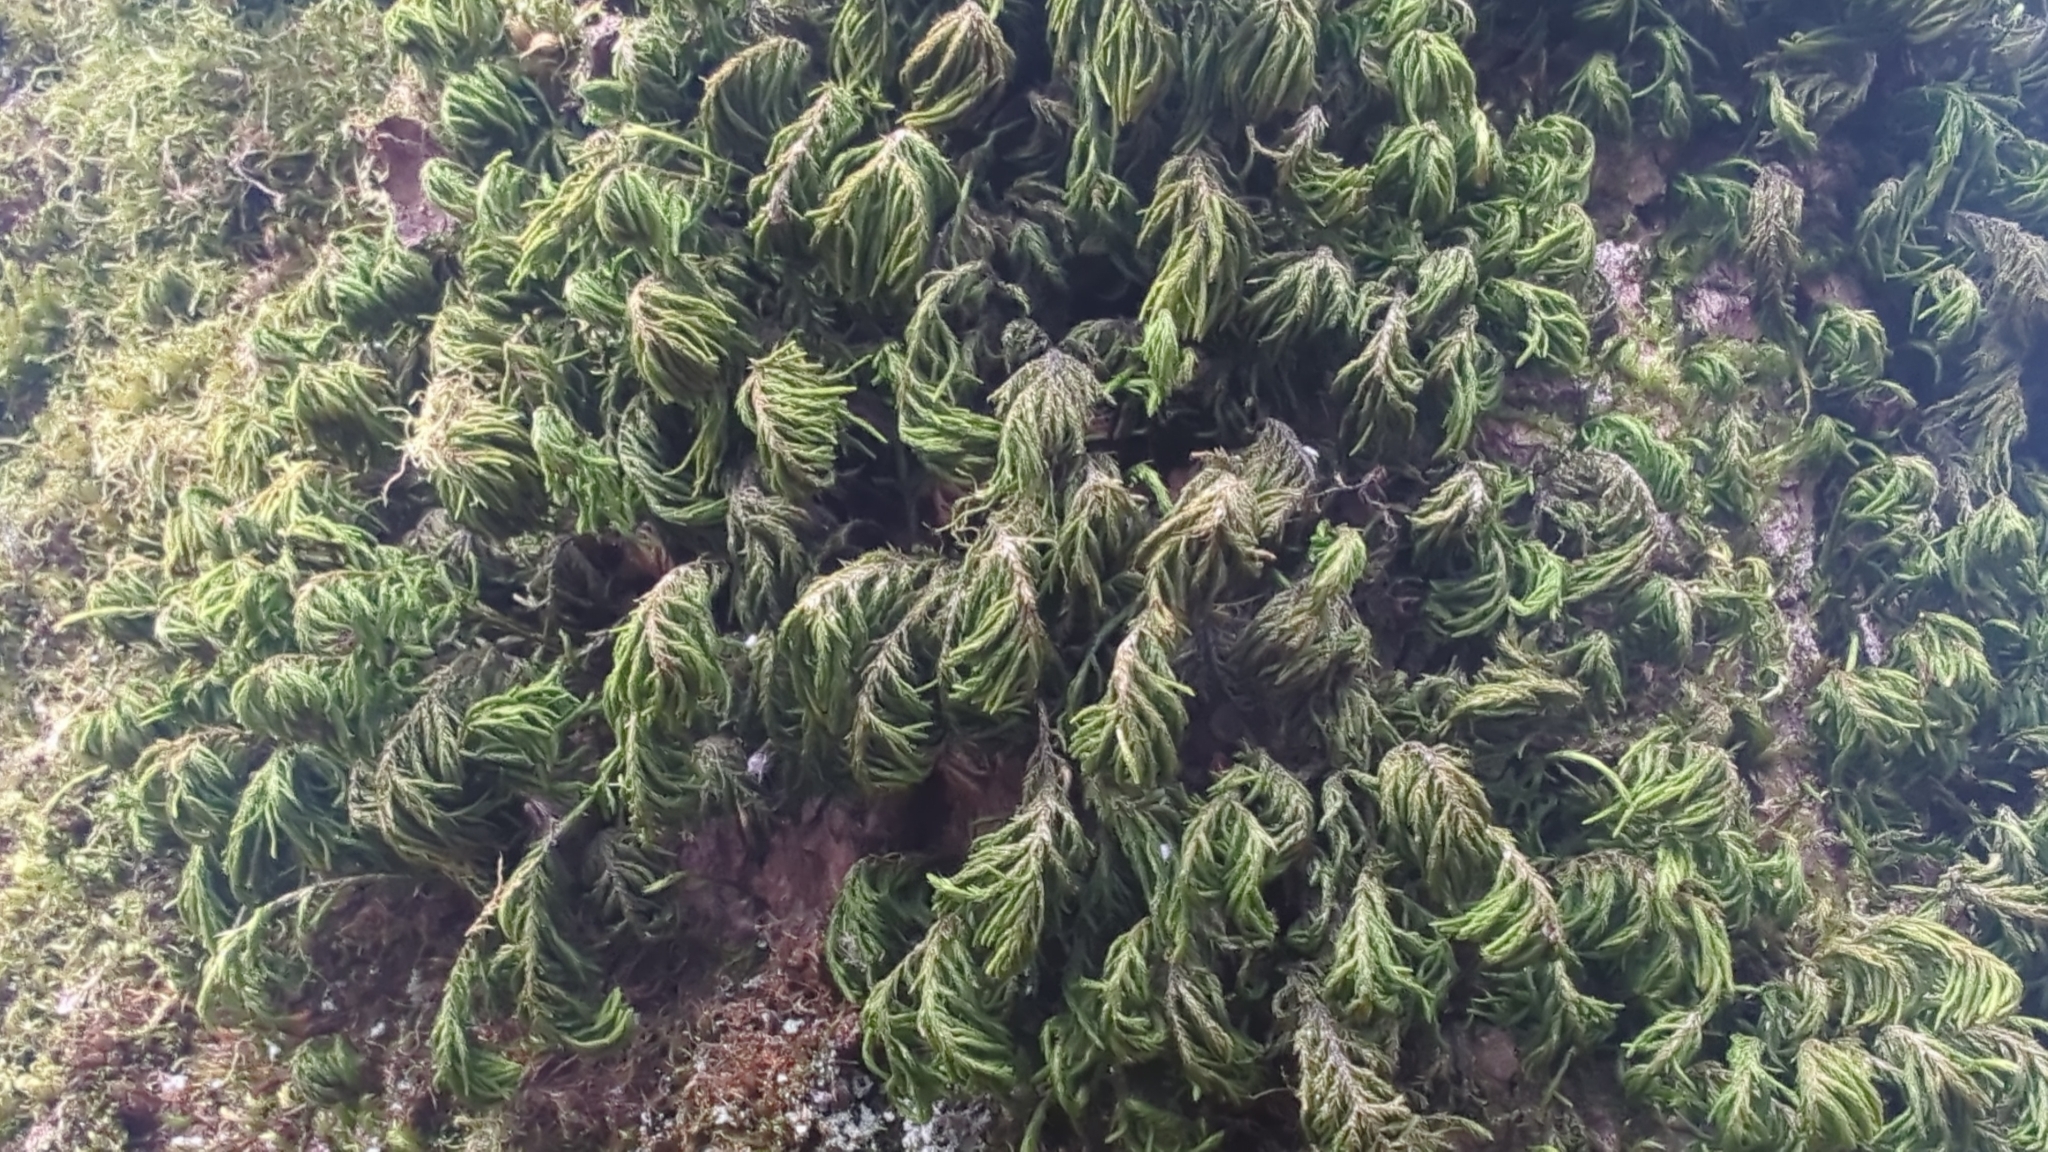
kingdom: Plantae
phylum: Bryophyta
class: Bryopsida
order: Hypnales
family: Cryphaeaceae
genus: Dendroalsia
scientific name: Dendroalsia abietina
